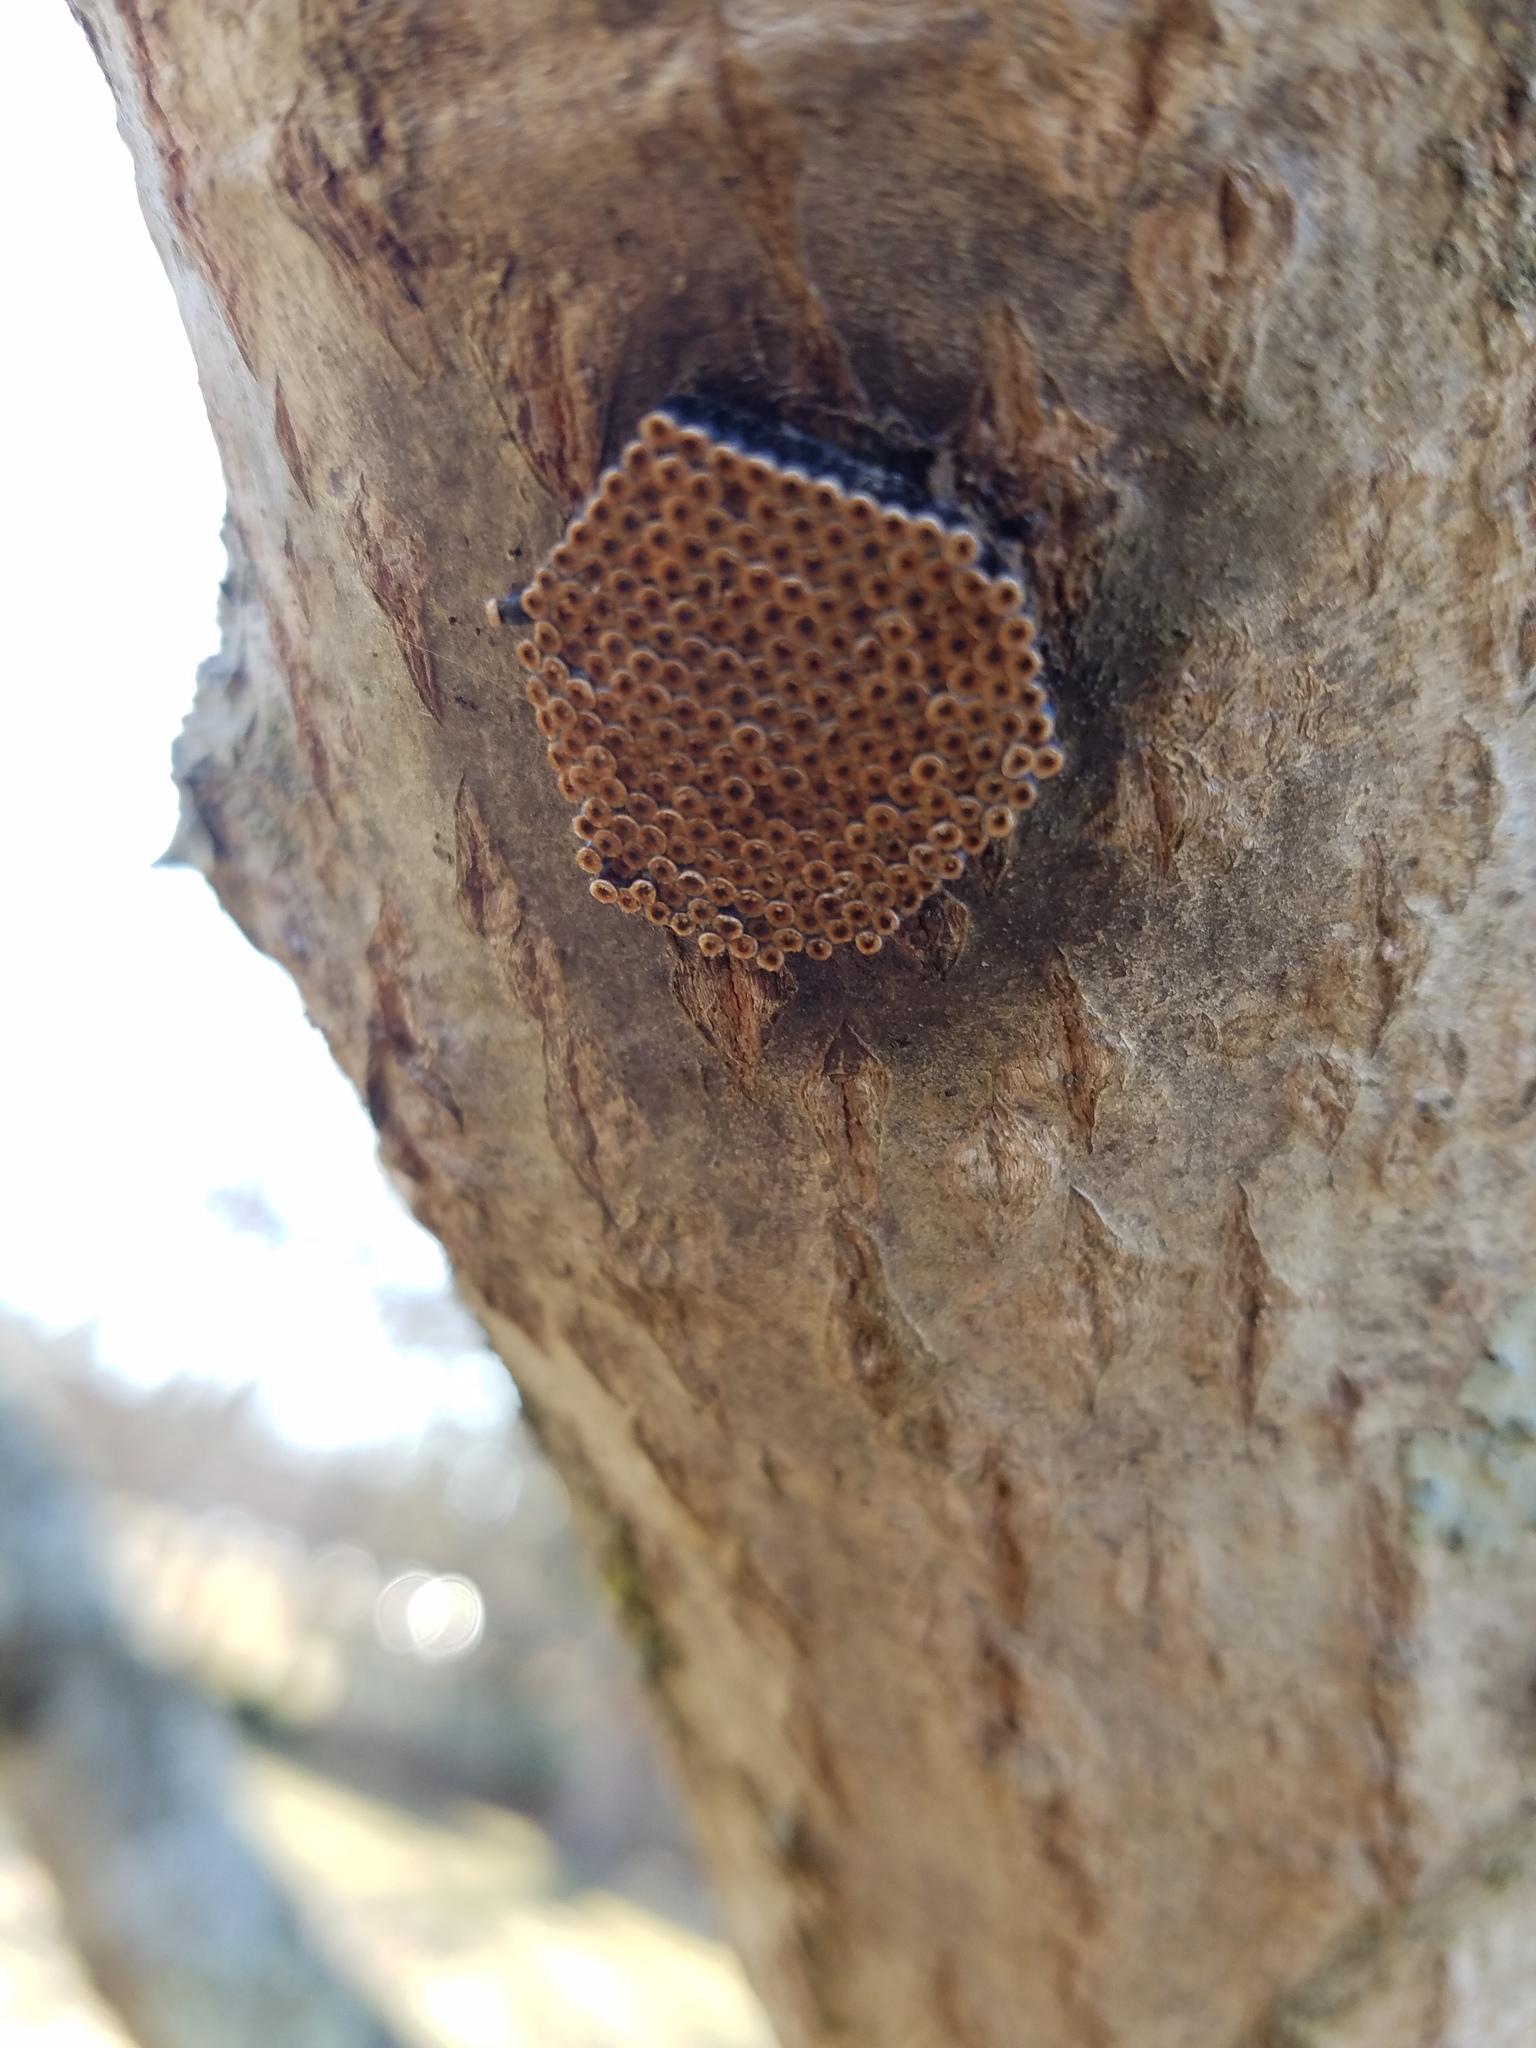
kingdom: Animalia
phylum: Arthropoda
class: Insecta
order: Hemiptera
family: Reduviidae
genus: Arilus
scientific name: Arilus cristatus
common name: North american wheel bug
